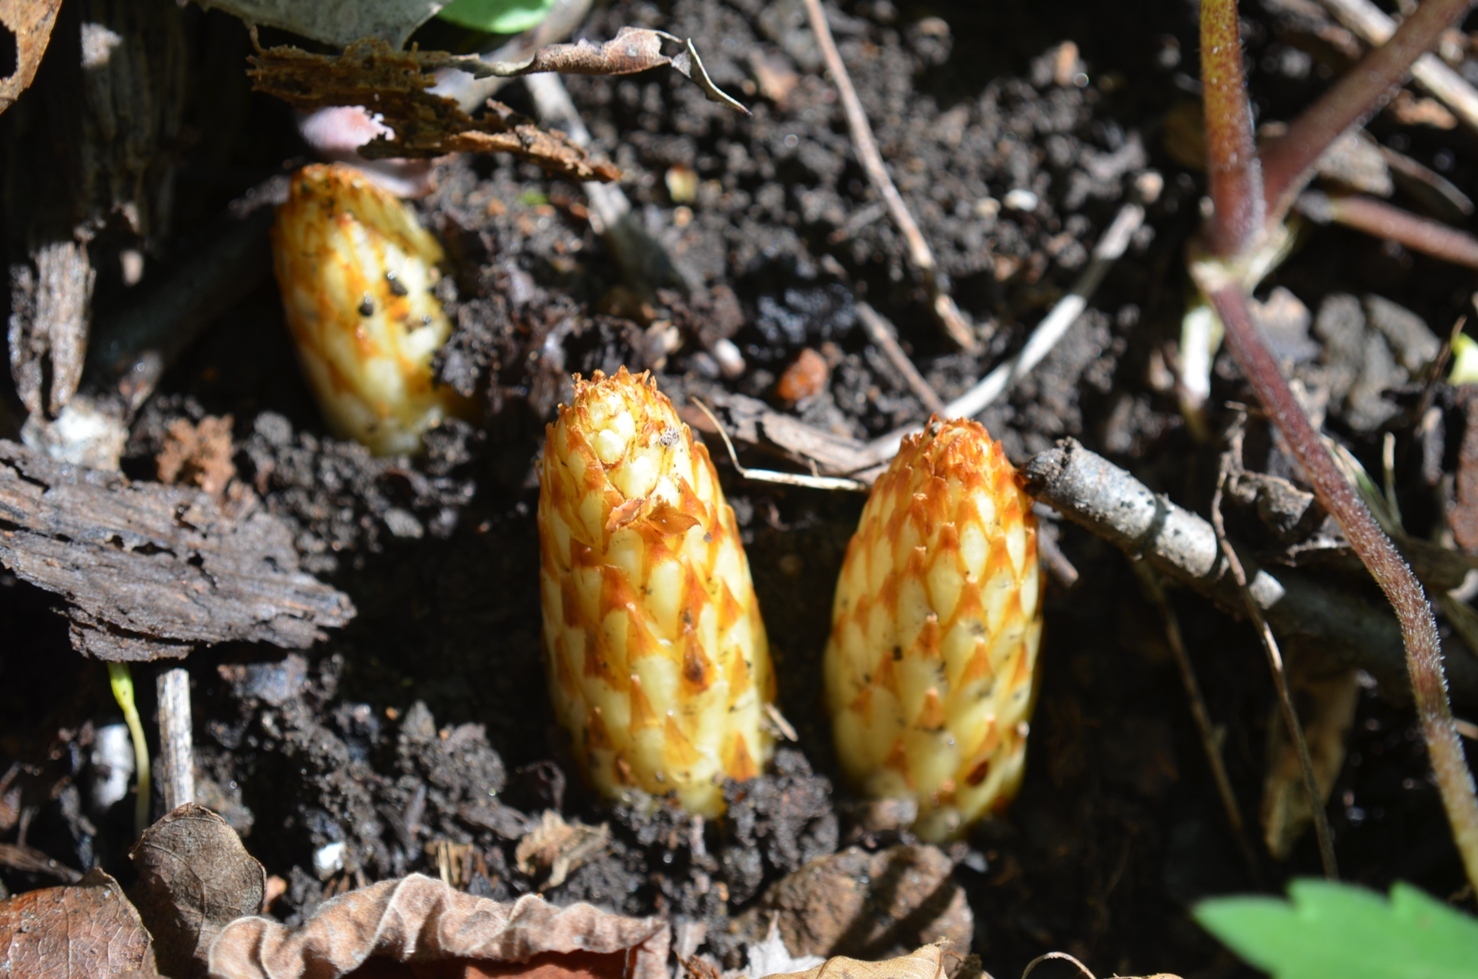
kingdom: Plantae
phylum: Tracheophyta
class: Magnoliopsida
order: Lamiales
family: Orobanchaceae
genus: Conopholis
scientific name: Conopholis americana
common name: American cancer-root
